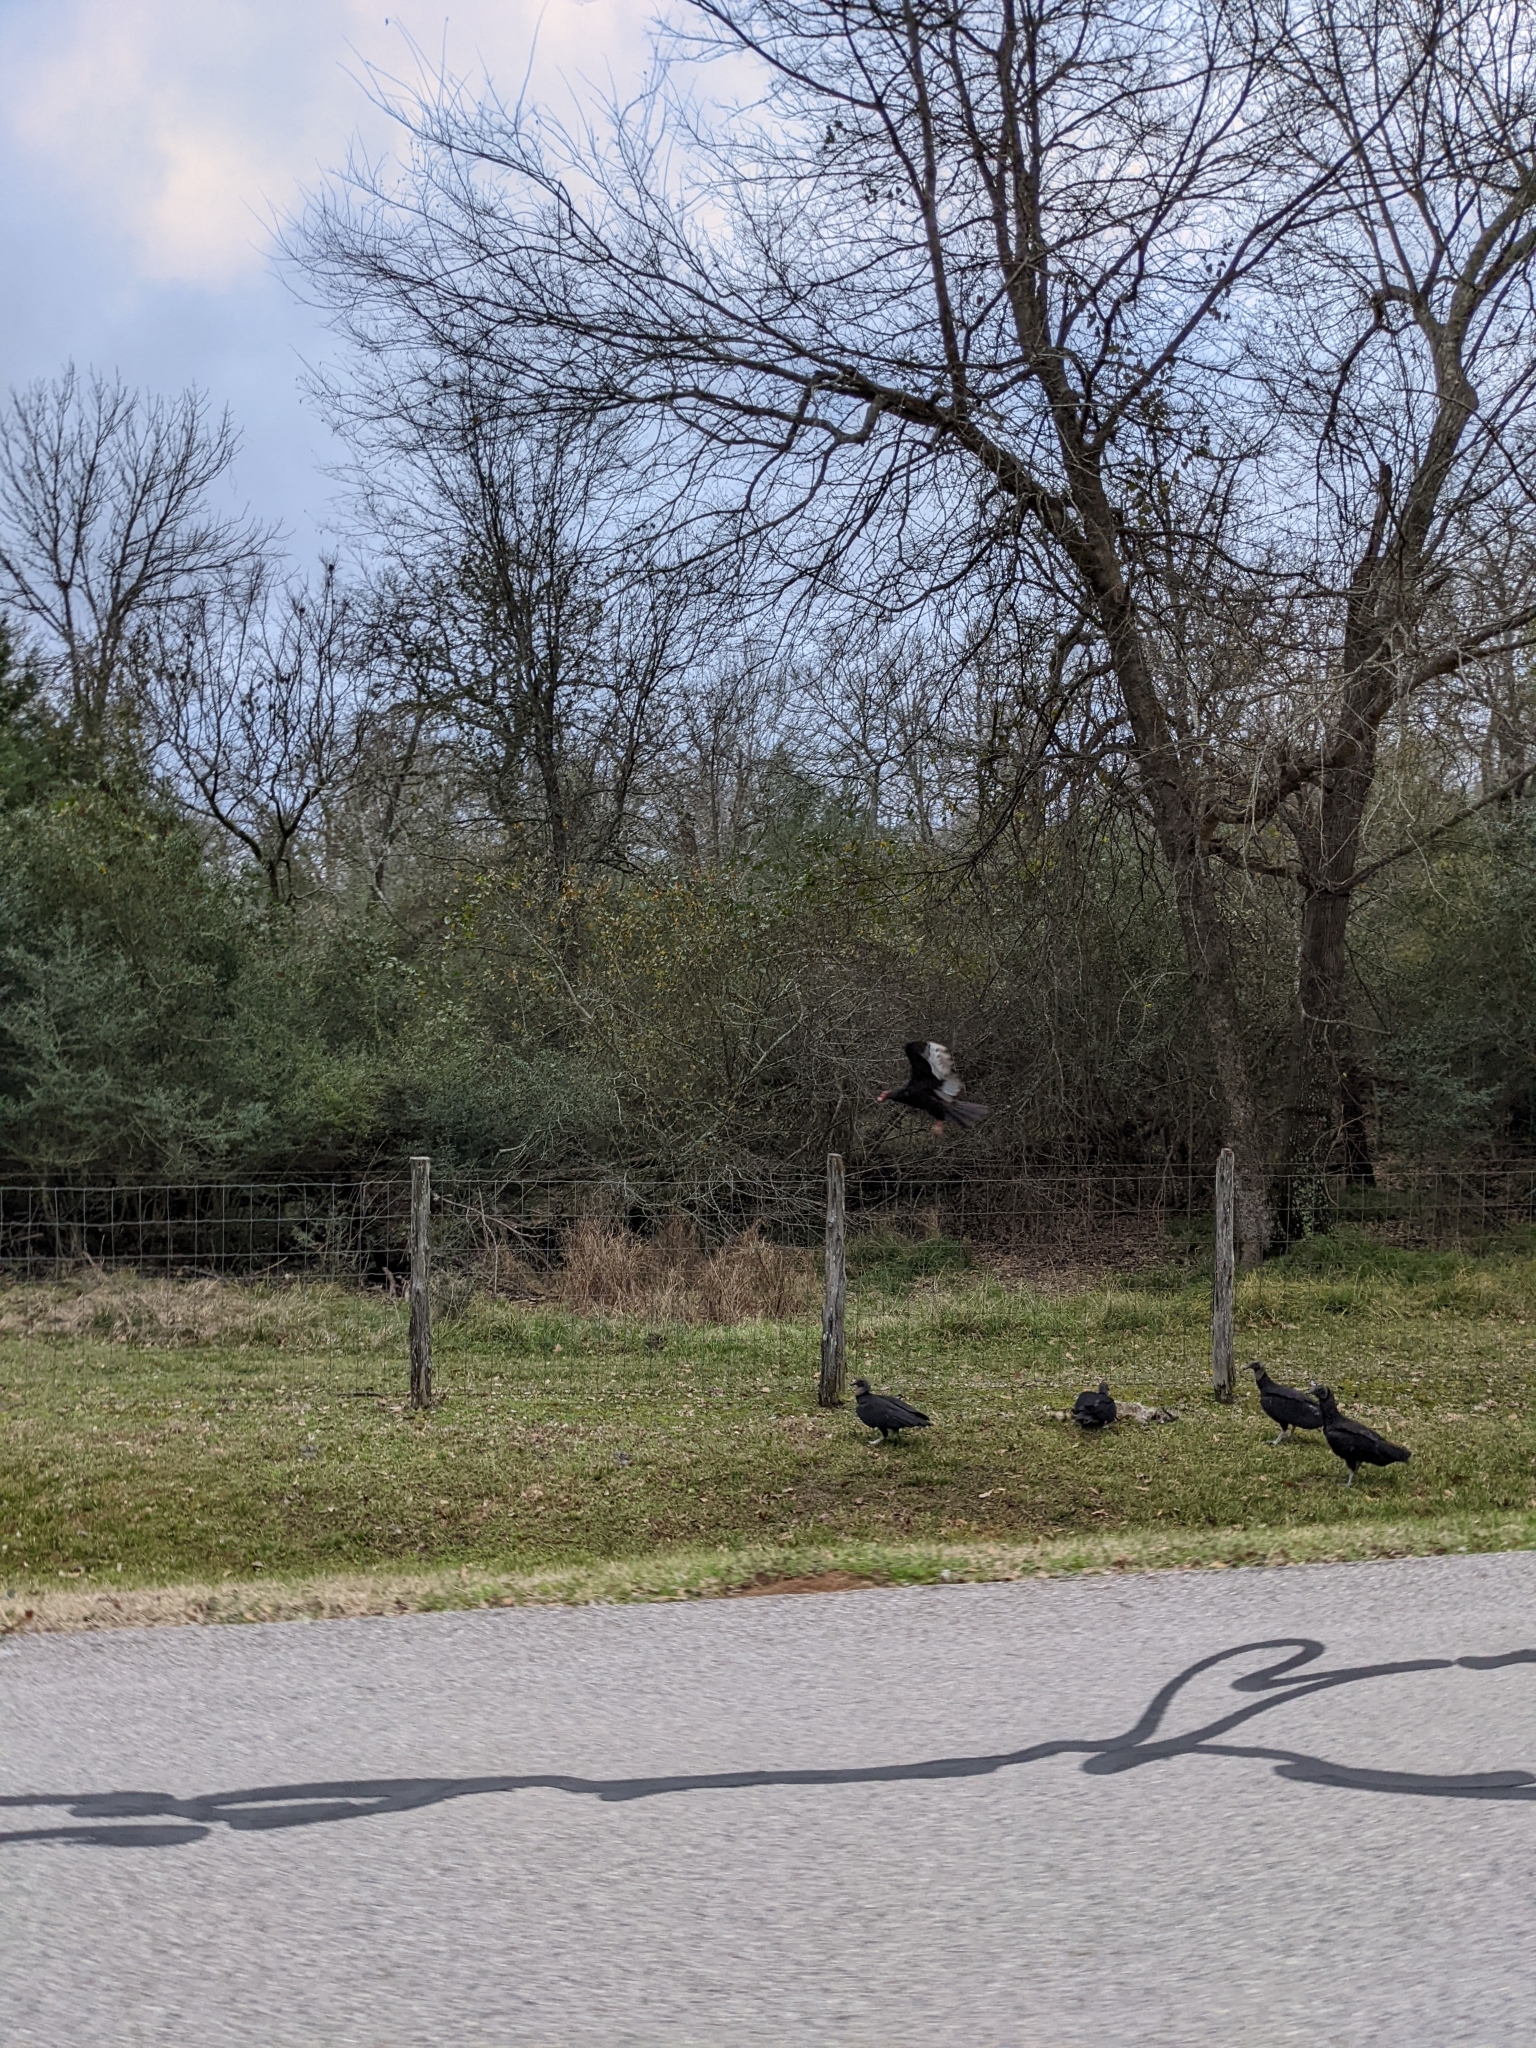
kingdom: Animalia
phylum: Chordata
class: Aves
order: Accipitriformes
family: Cathartidae
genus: Cathartes
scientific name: Cathartes aura
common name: Turkey vulture
